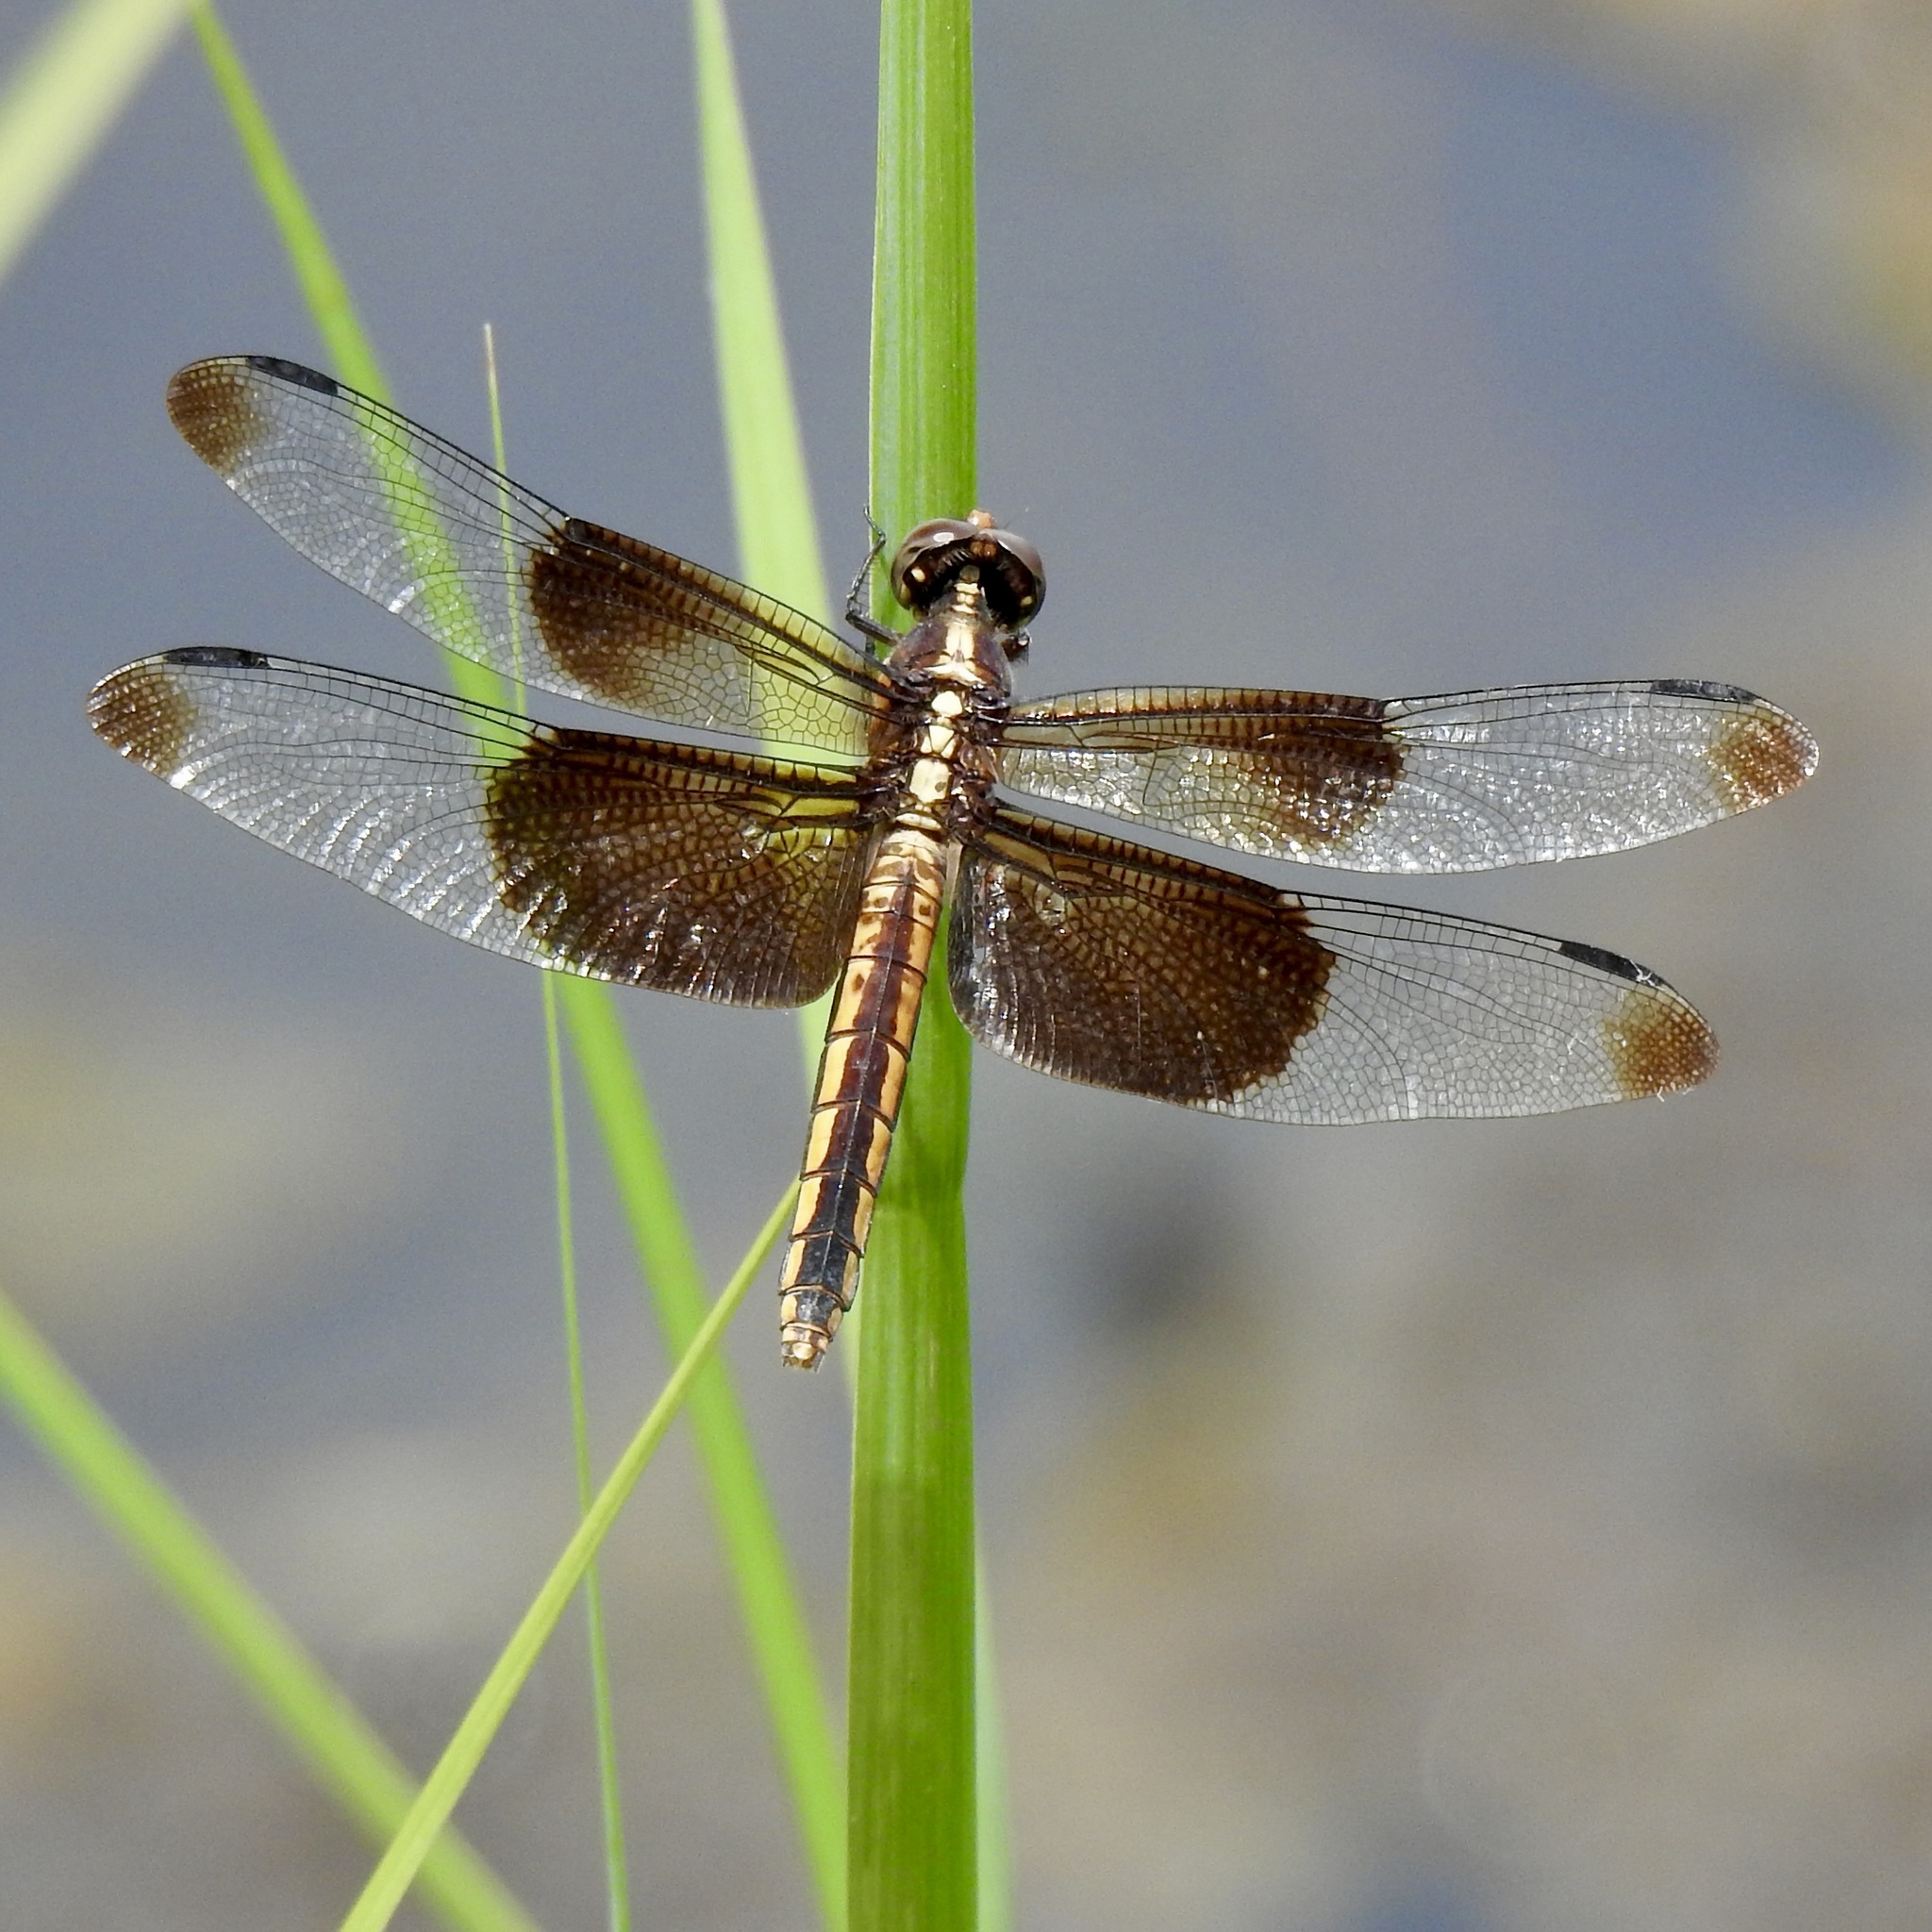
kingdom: Animalia
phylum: Arthropoda
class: Insecta
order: Odonata
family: Libellulidae
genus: Libellula
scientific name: Libellula luctuosa
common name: Widow skimmer
